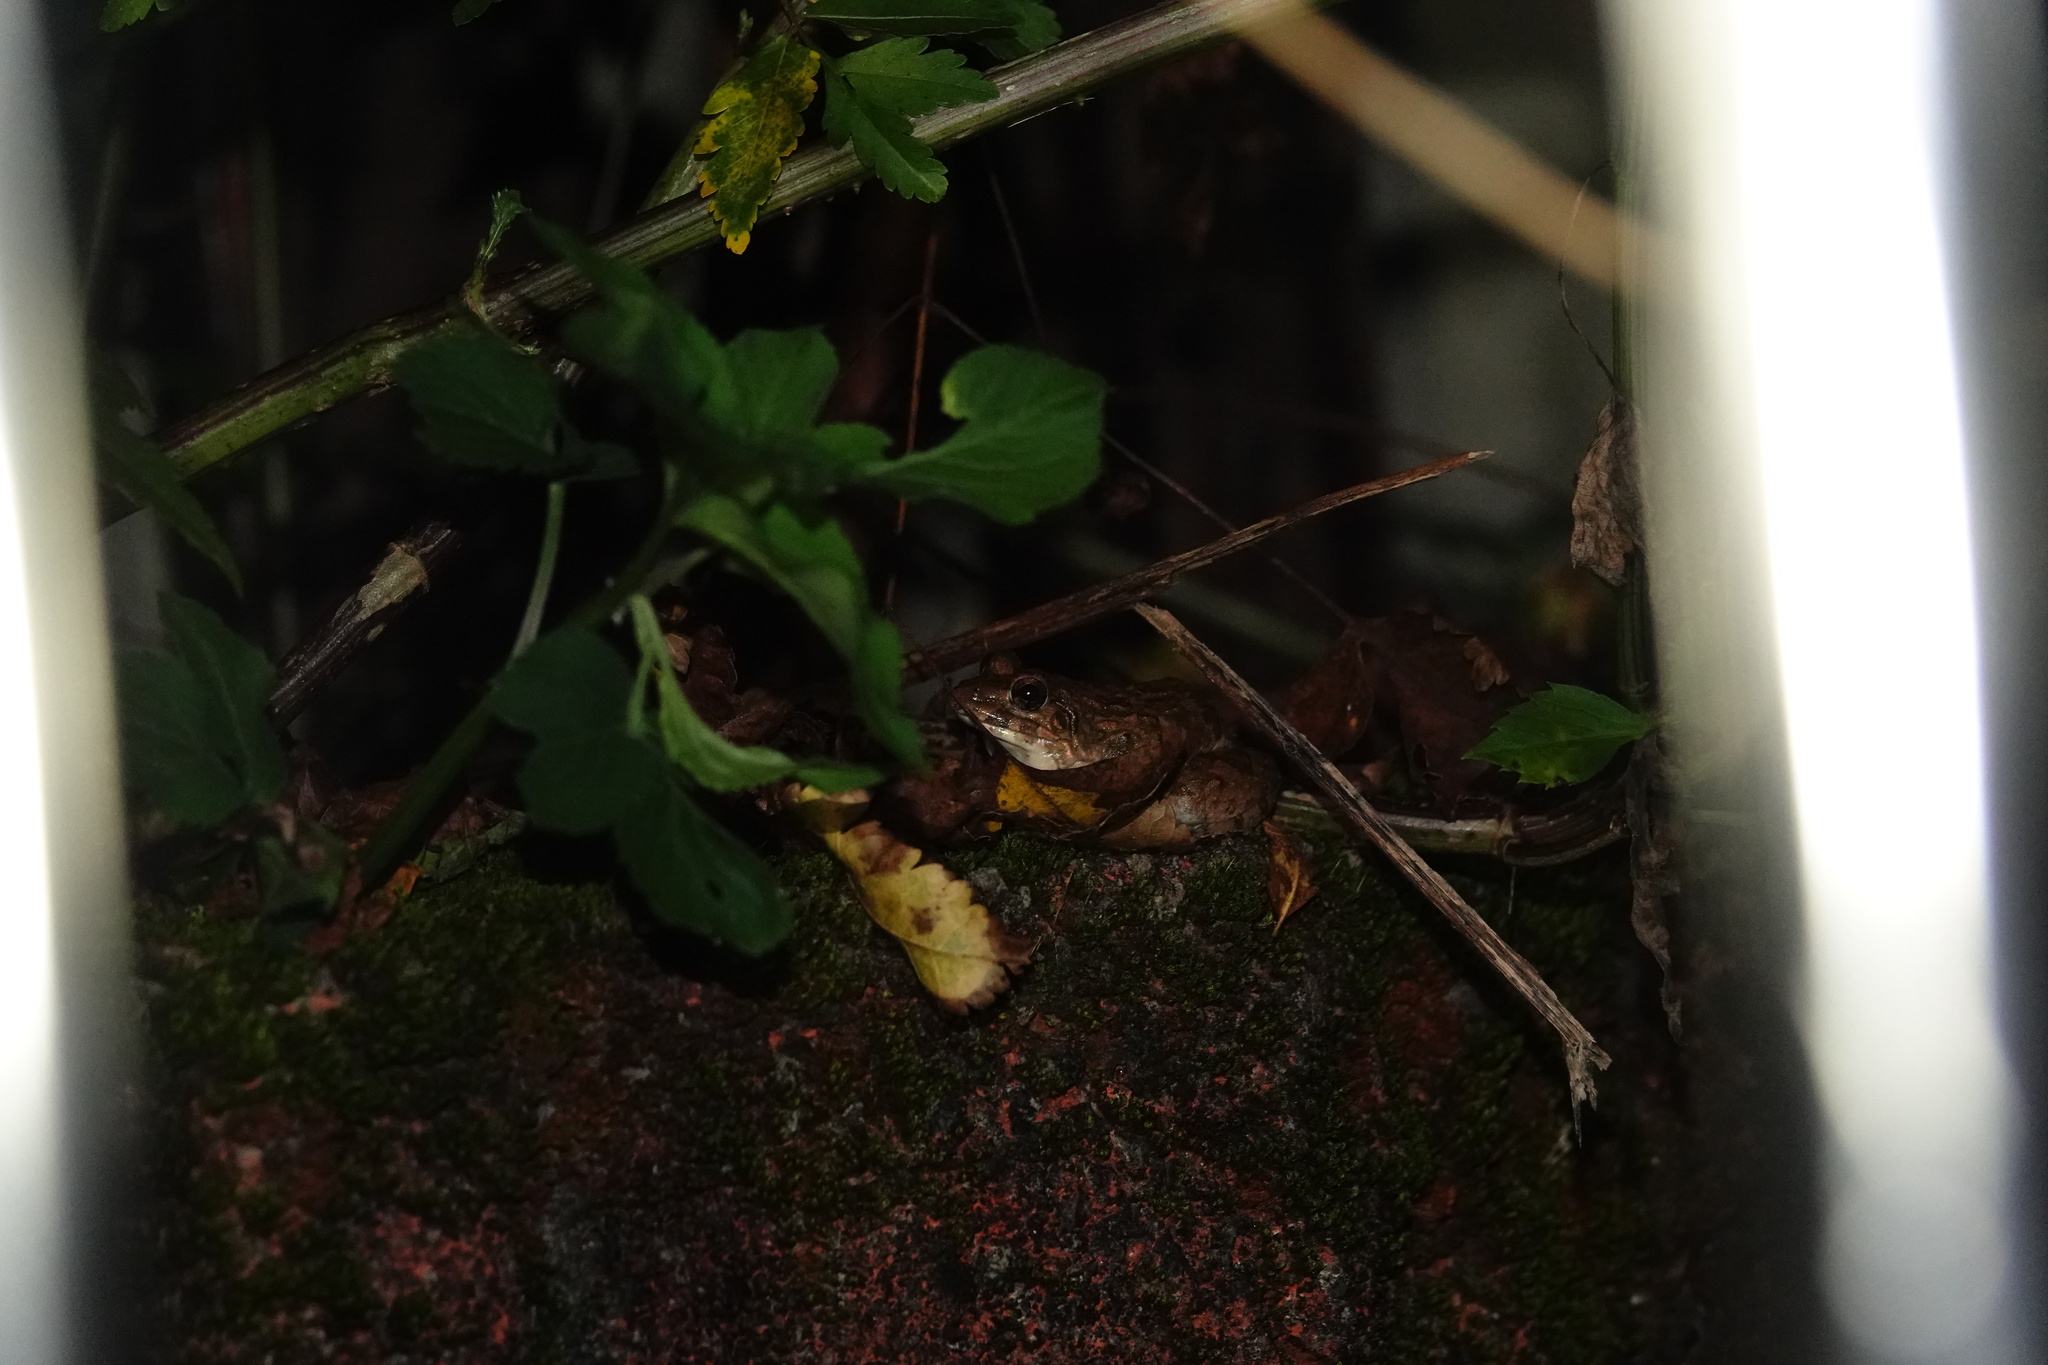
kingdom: Animalia
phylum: Chordata
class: Amphibia
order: Anura
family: Dicroglossidae
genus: Fejervarya
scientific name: Fejervarya limnocharis
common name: Asian grass frog/common pond frog/field frog/grass frog/indian rice frog
